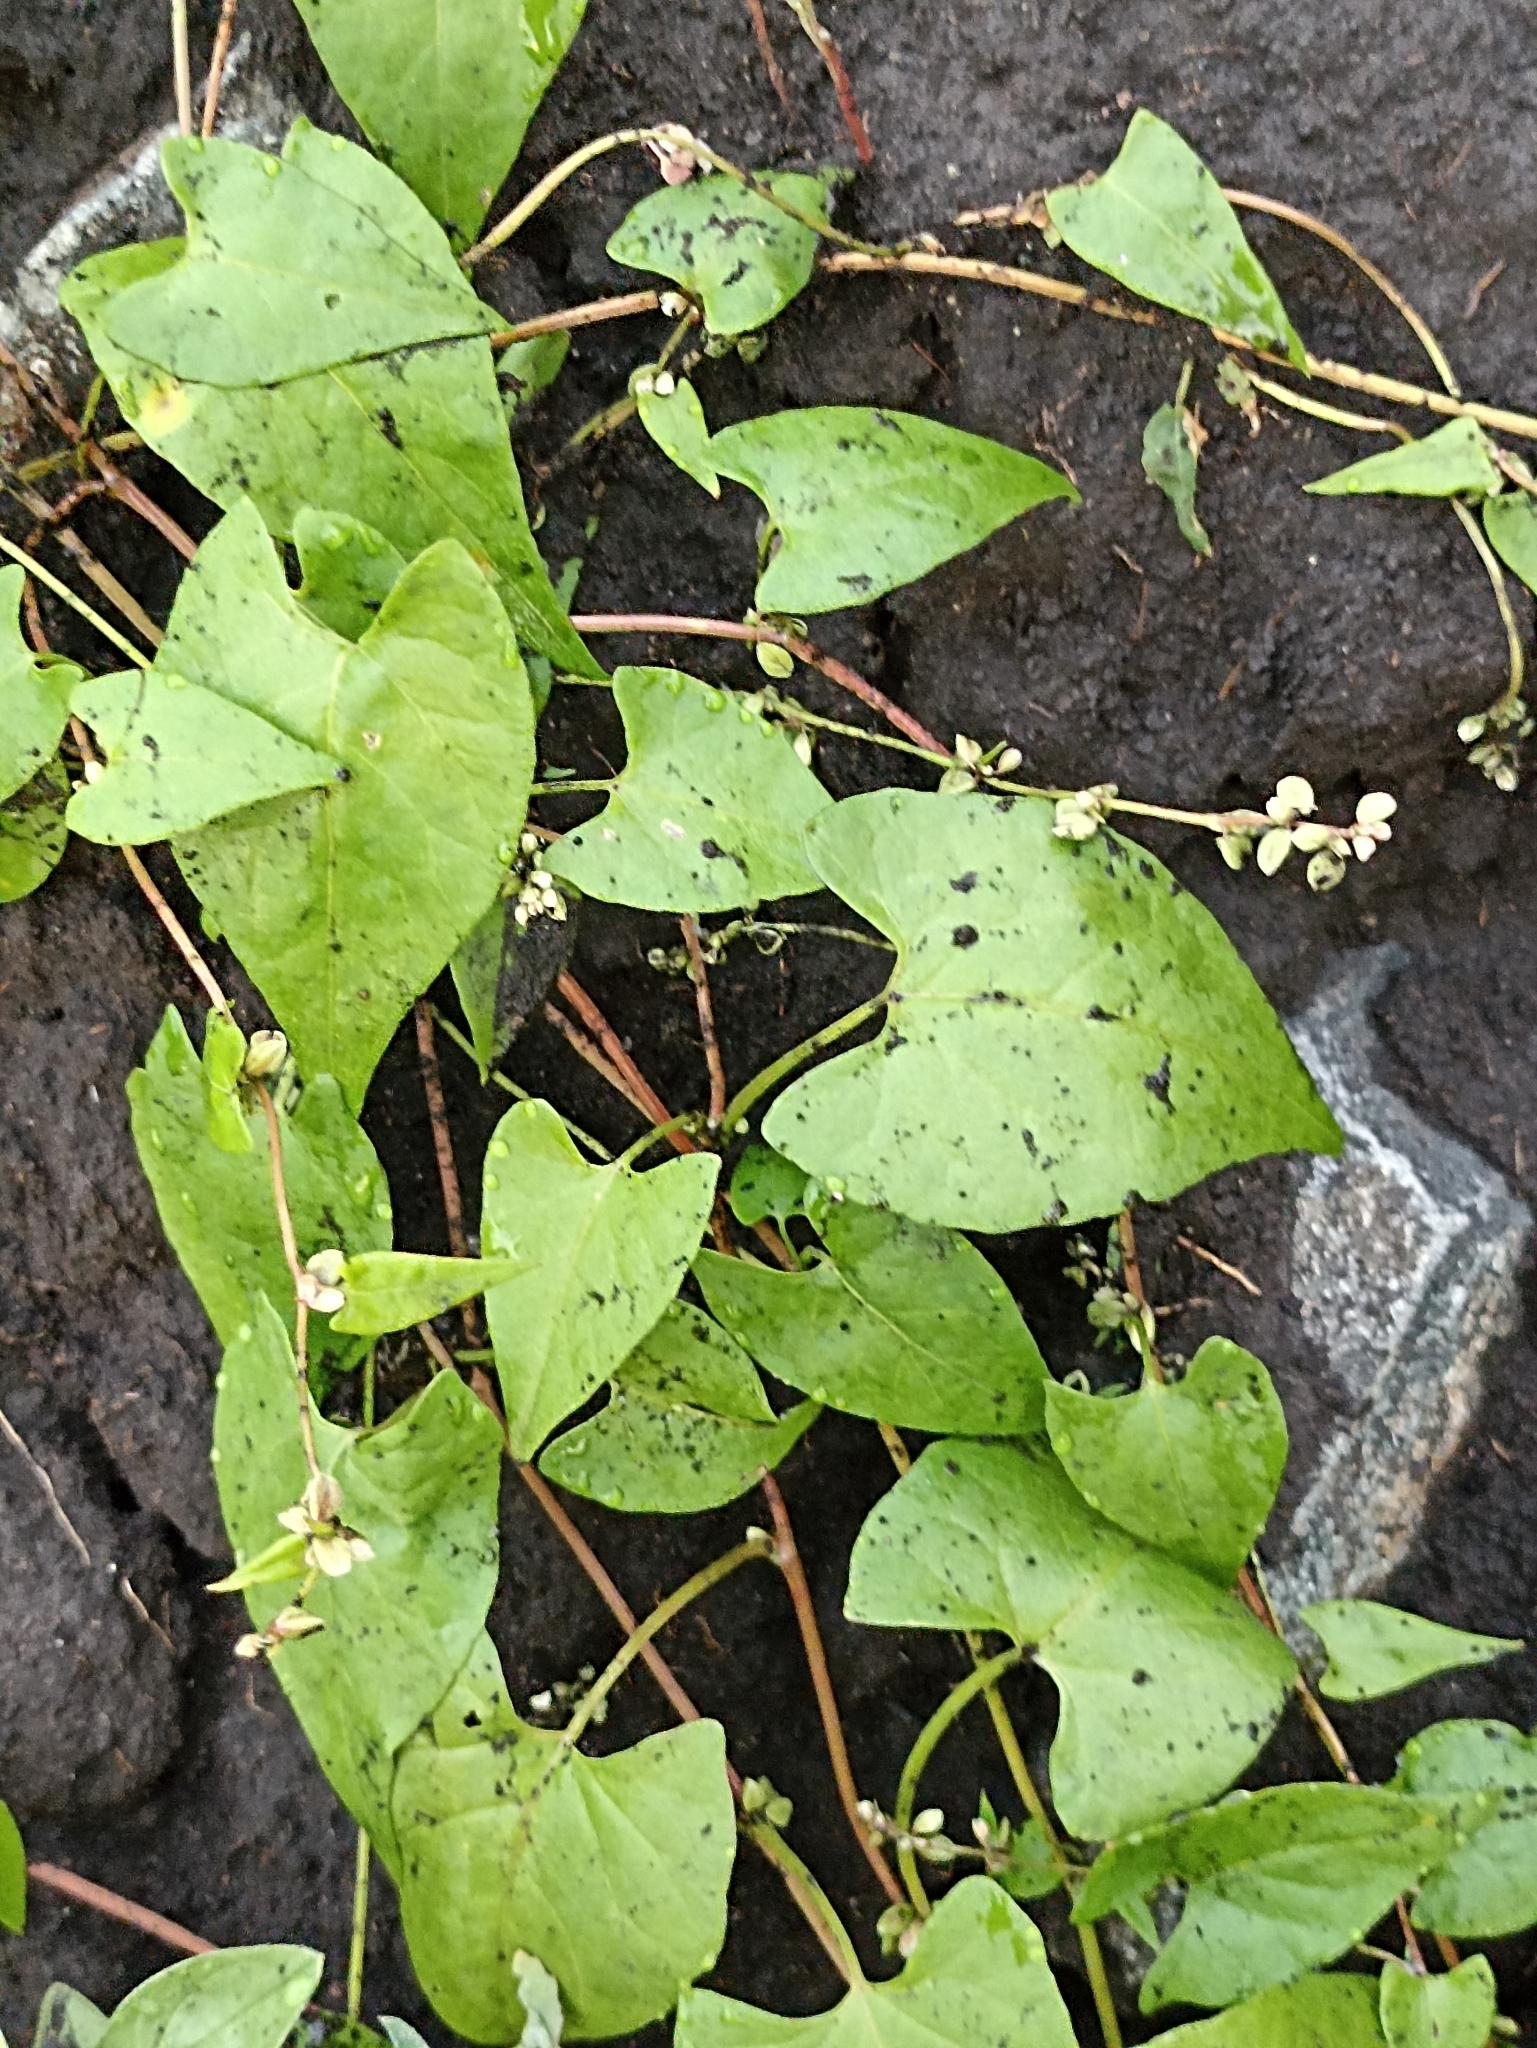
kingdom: Plantae
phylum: Tracheophyta
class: Magnoliopsida
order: Caryophyllales
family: Polygonaceae
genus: Fallopia
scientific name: Fallopia convolvulus
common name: Black bindweed
